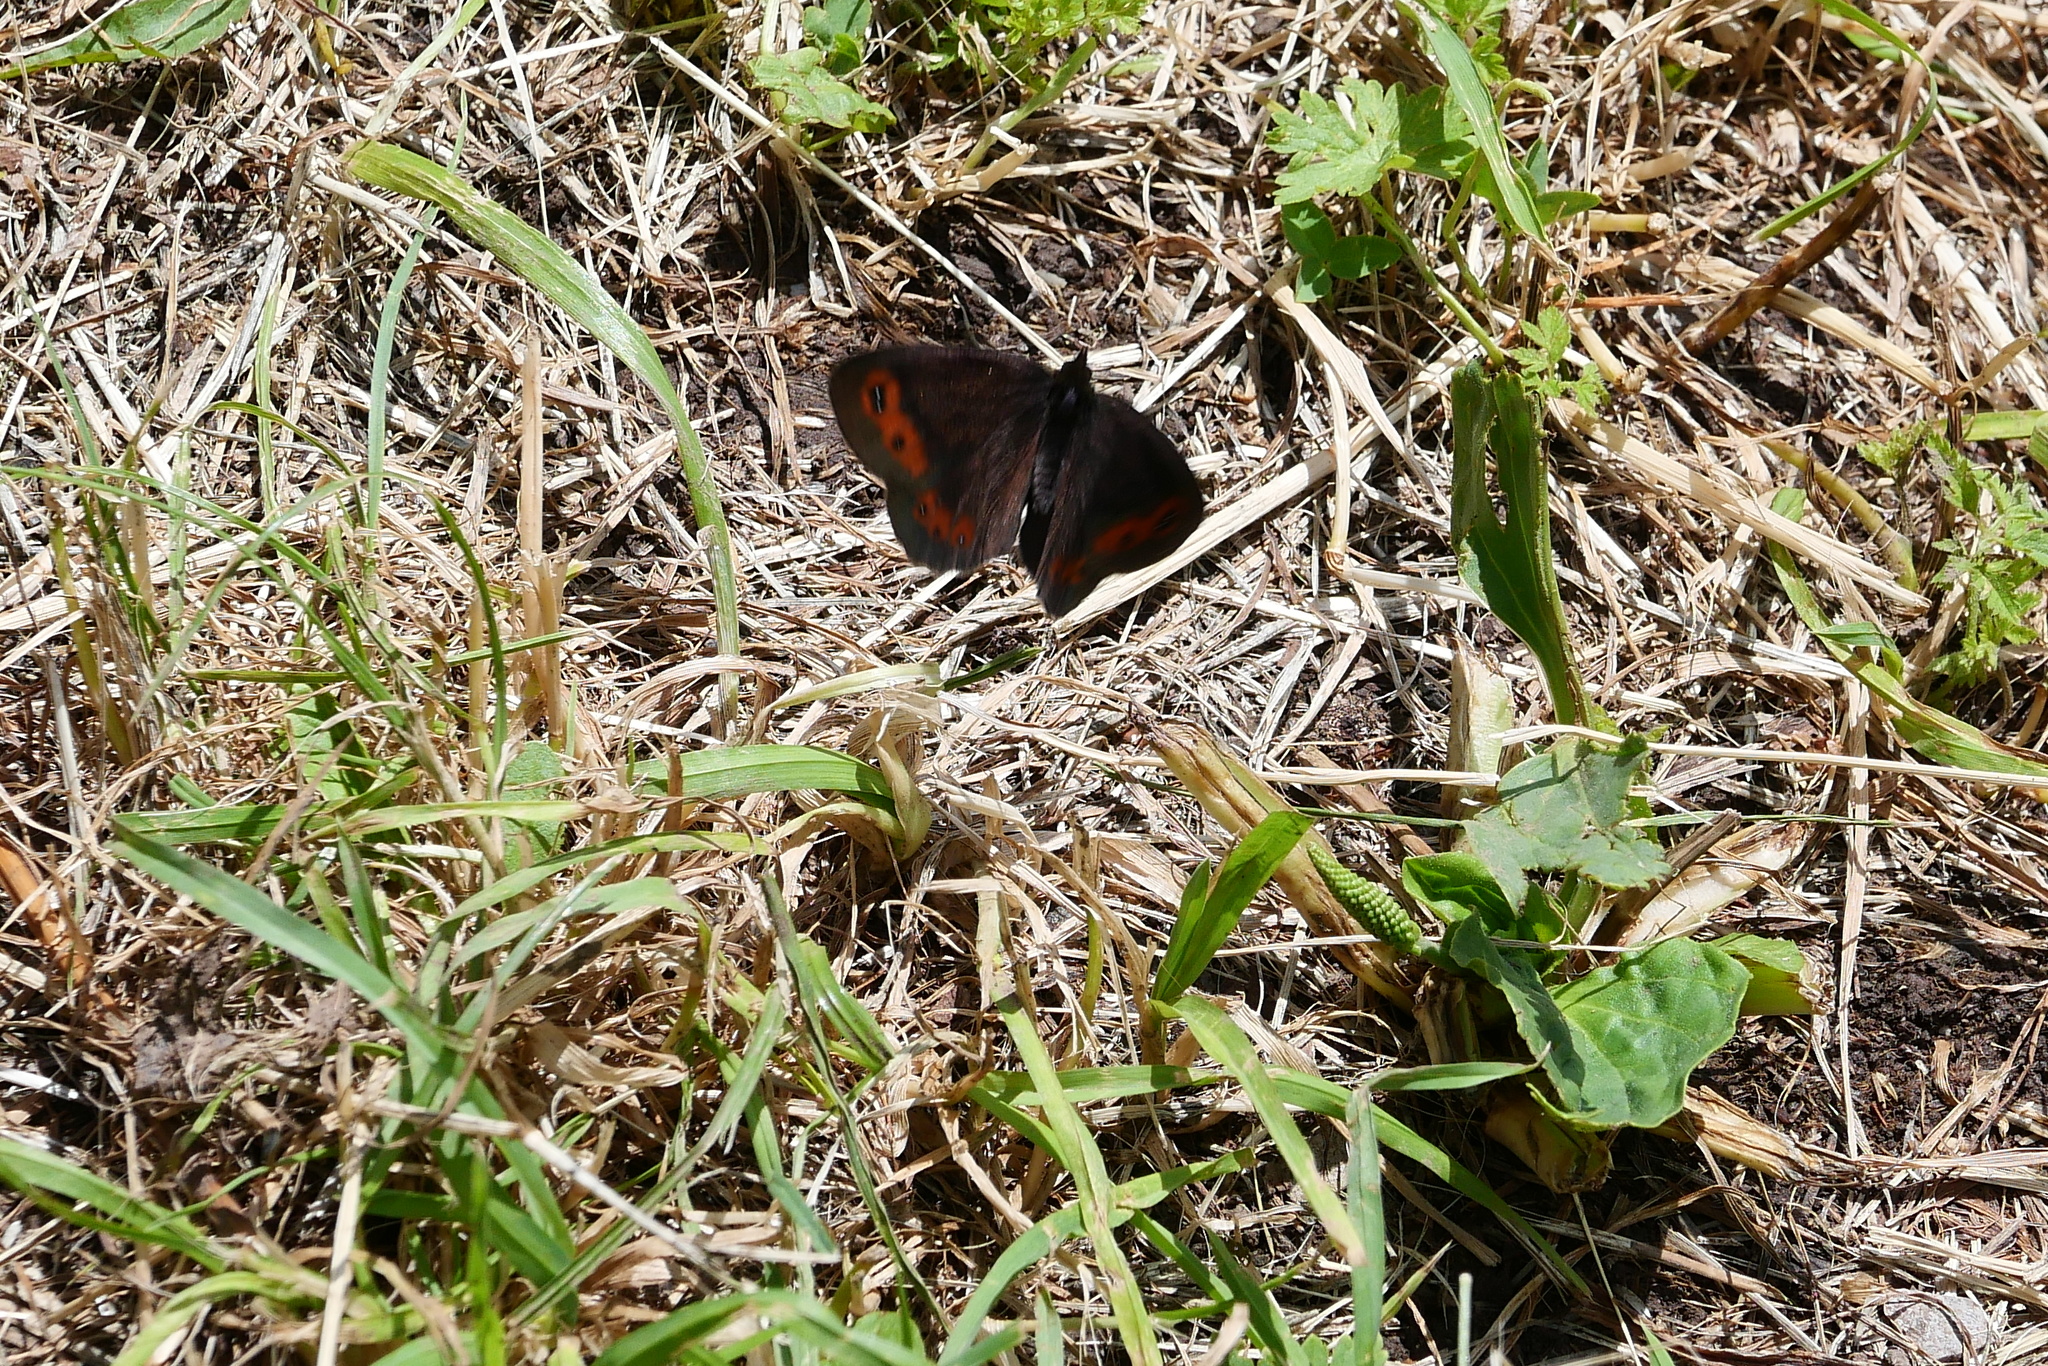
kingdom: Animalia
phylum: Arthropoda
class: Insecta
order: Lepidoptera
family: Nymphalidae
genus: Erebia
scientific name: Erebia aethiops
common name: Scotch argus
